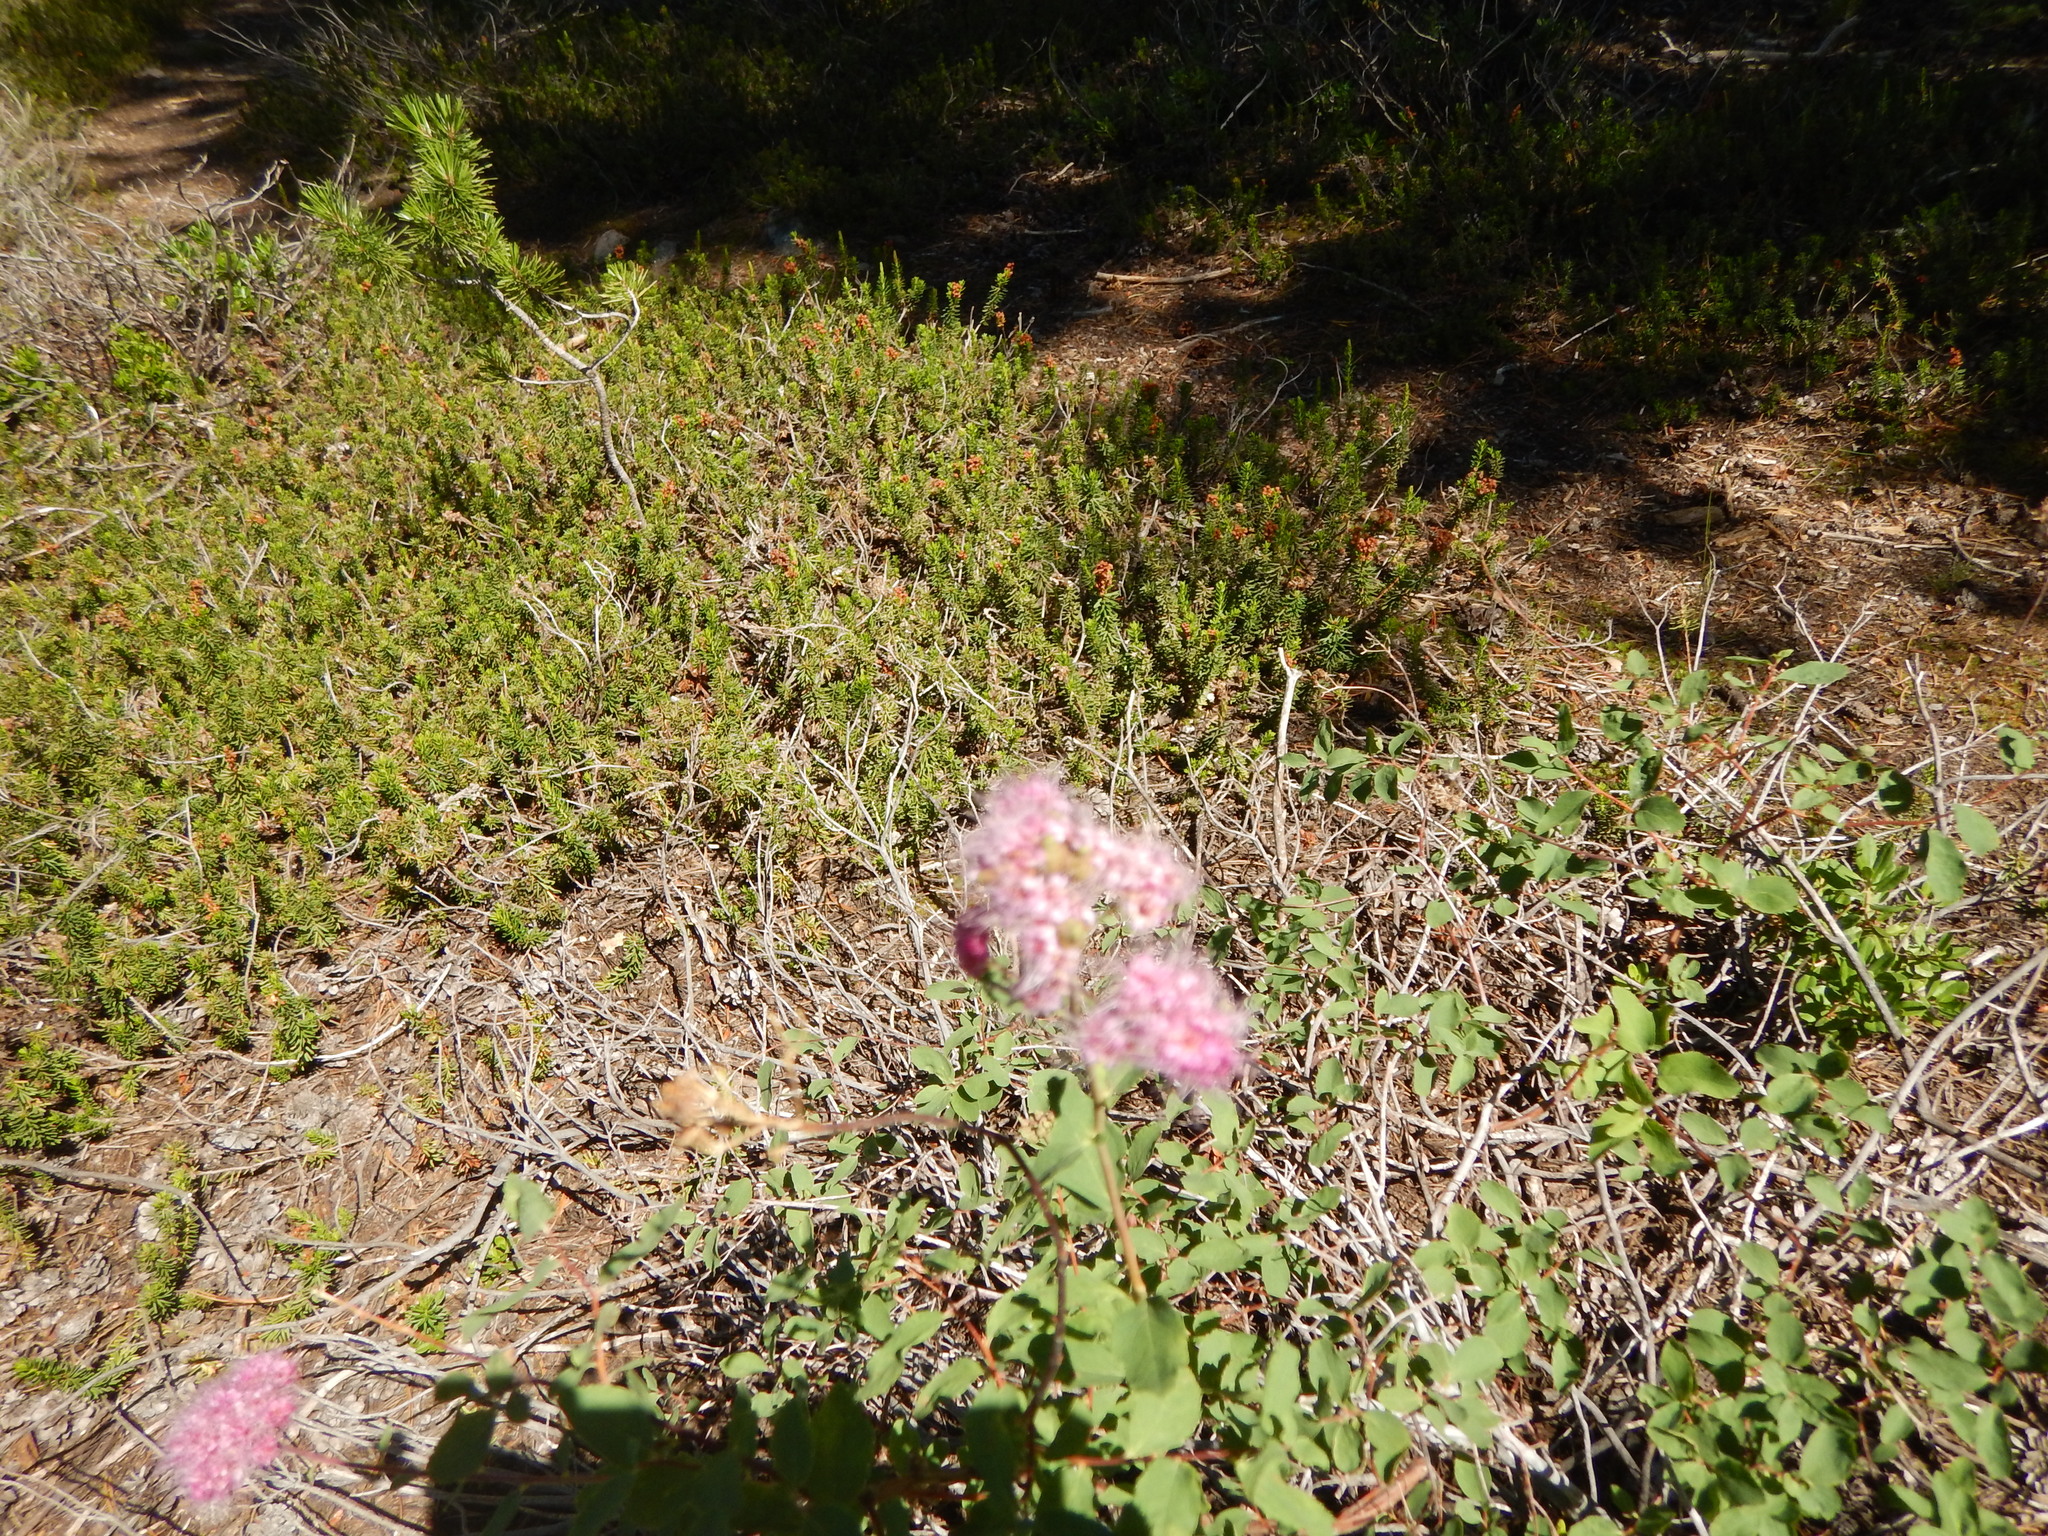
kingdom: Plantae
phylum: Tracheophyta
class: Magnoliopsida
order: Rosales
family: Rosaceae
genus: Spiraea
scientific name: Spiraea splendens
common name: Subalpine meadowsweet
